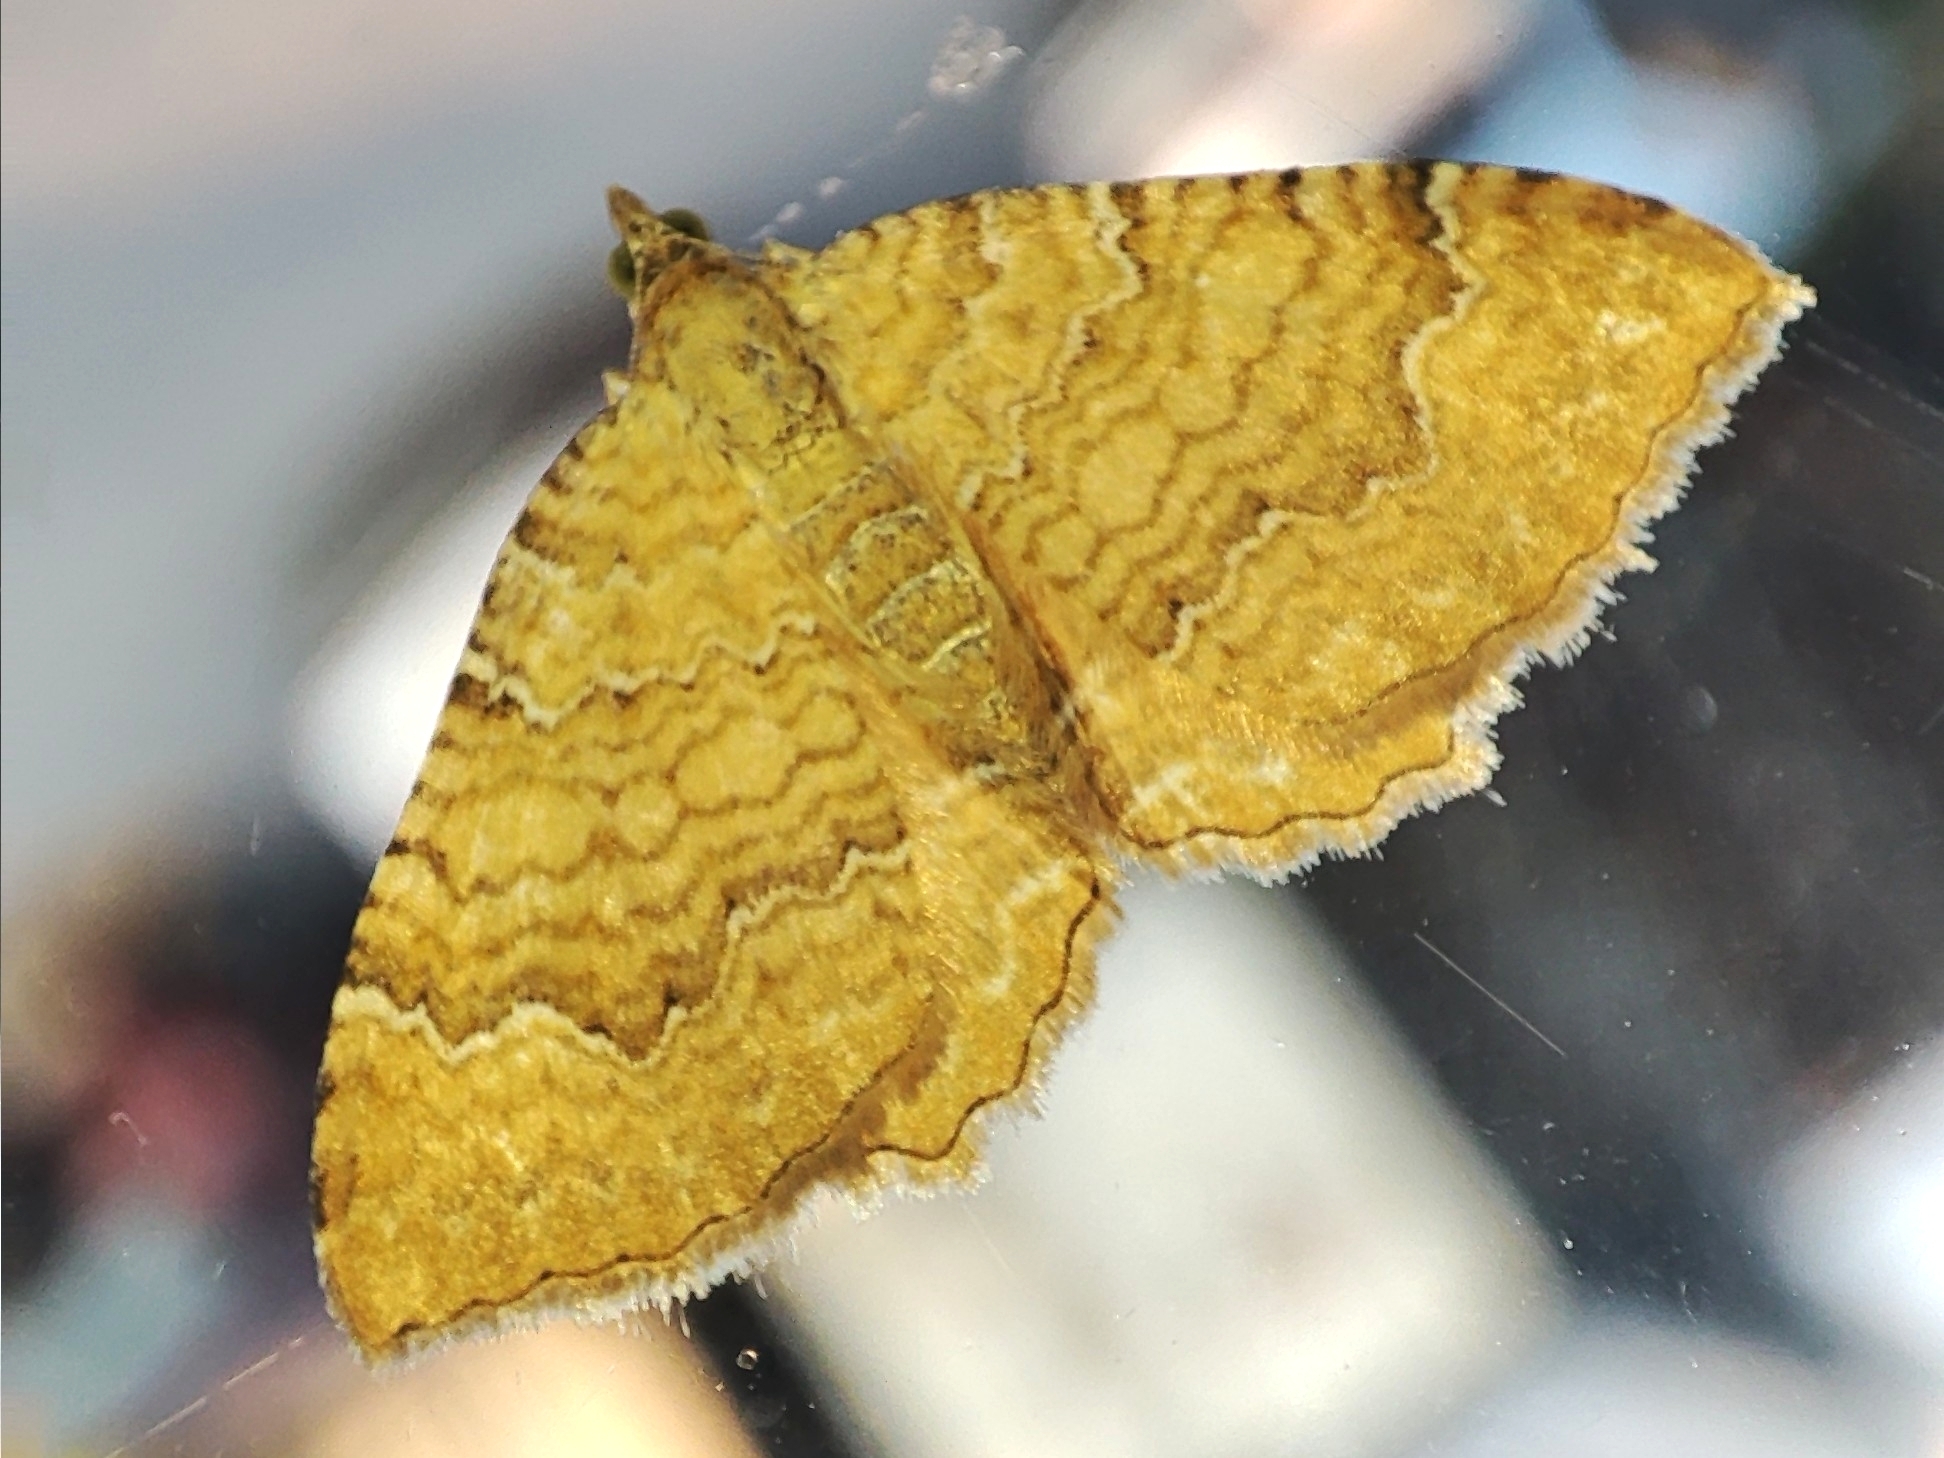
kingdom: Animalia
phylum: Arthropoda
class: Insecta
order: Lepidoptera
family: Geometridae
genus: Camptogramma
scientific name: Camptogramma bilineata
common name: Yellow shell
